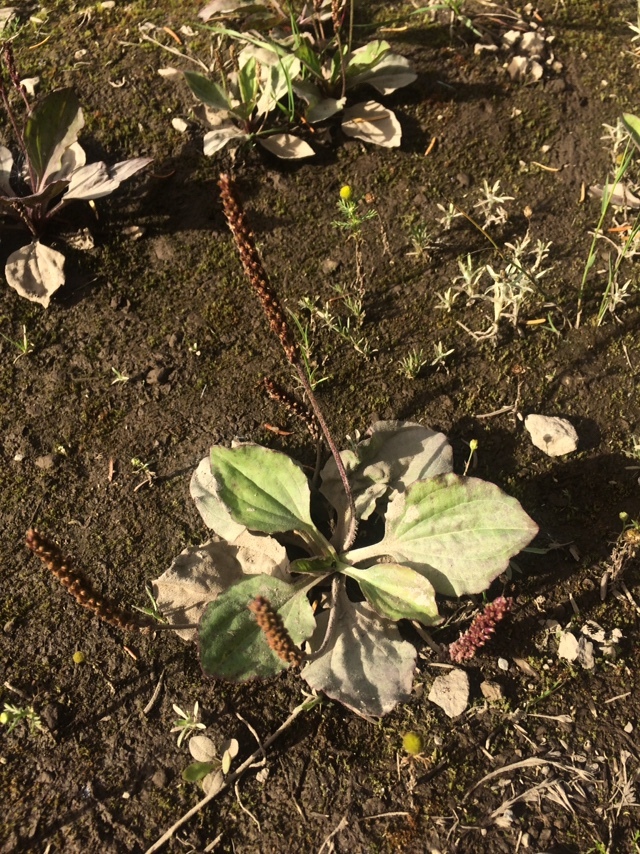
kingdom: Plantae
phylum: Tracheophyta
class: Magnoliopsida
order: Lamiales
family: Plantaginaceae
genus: Plantago
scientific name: Plantago major
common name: Common plantain
